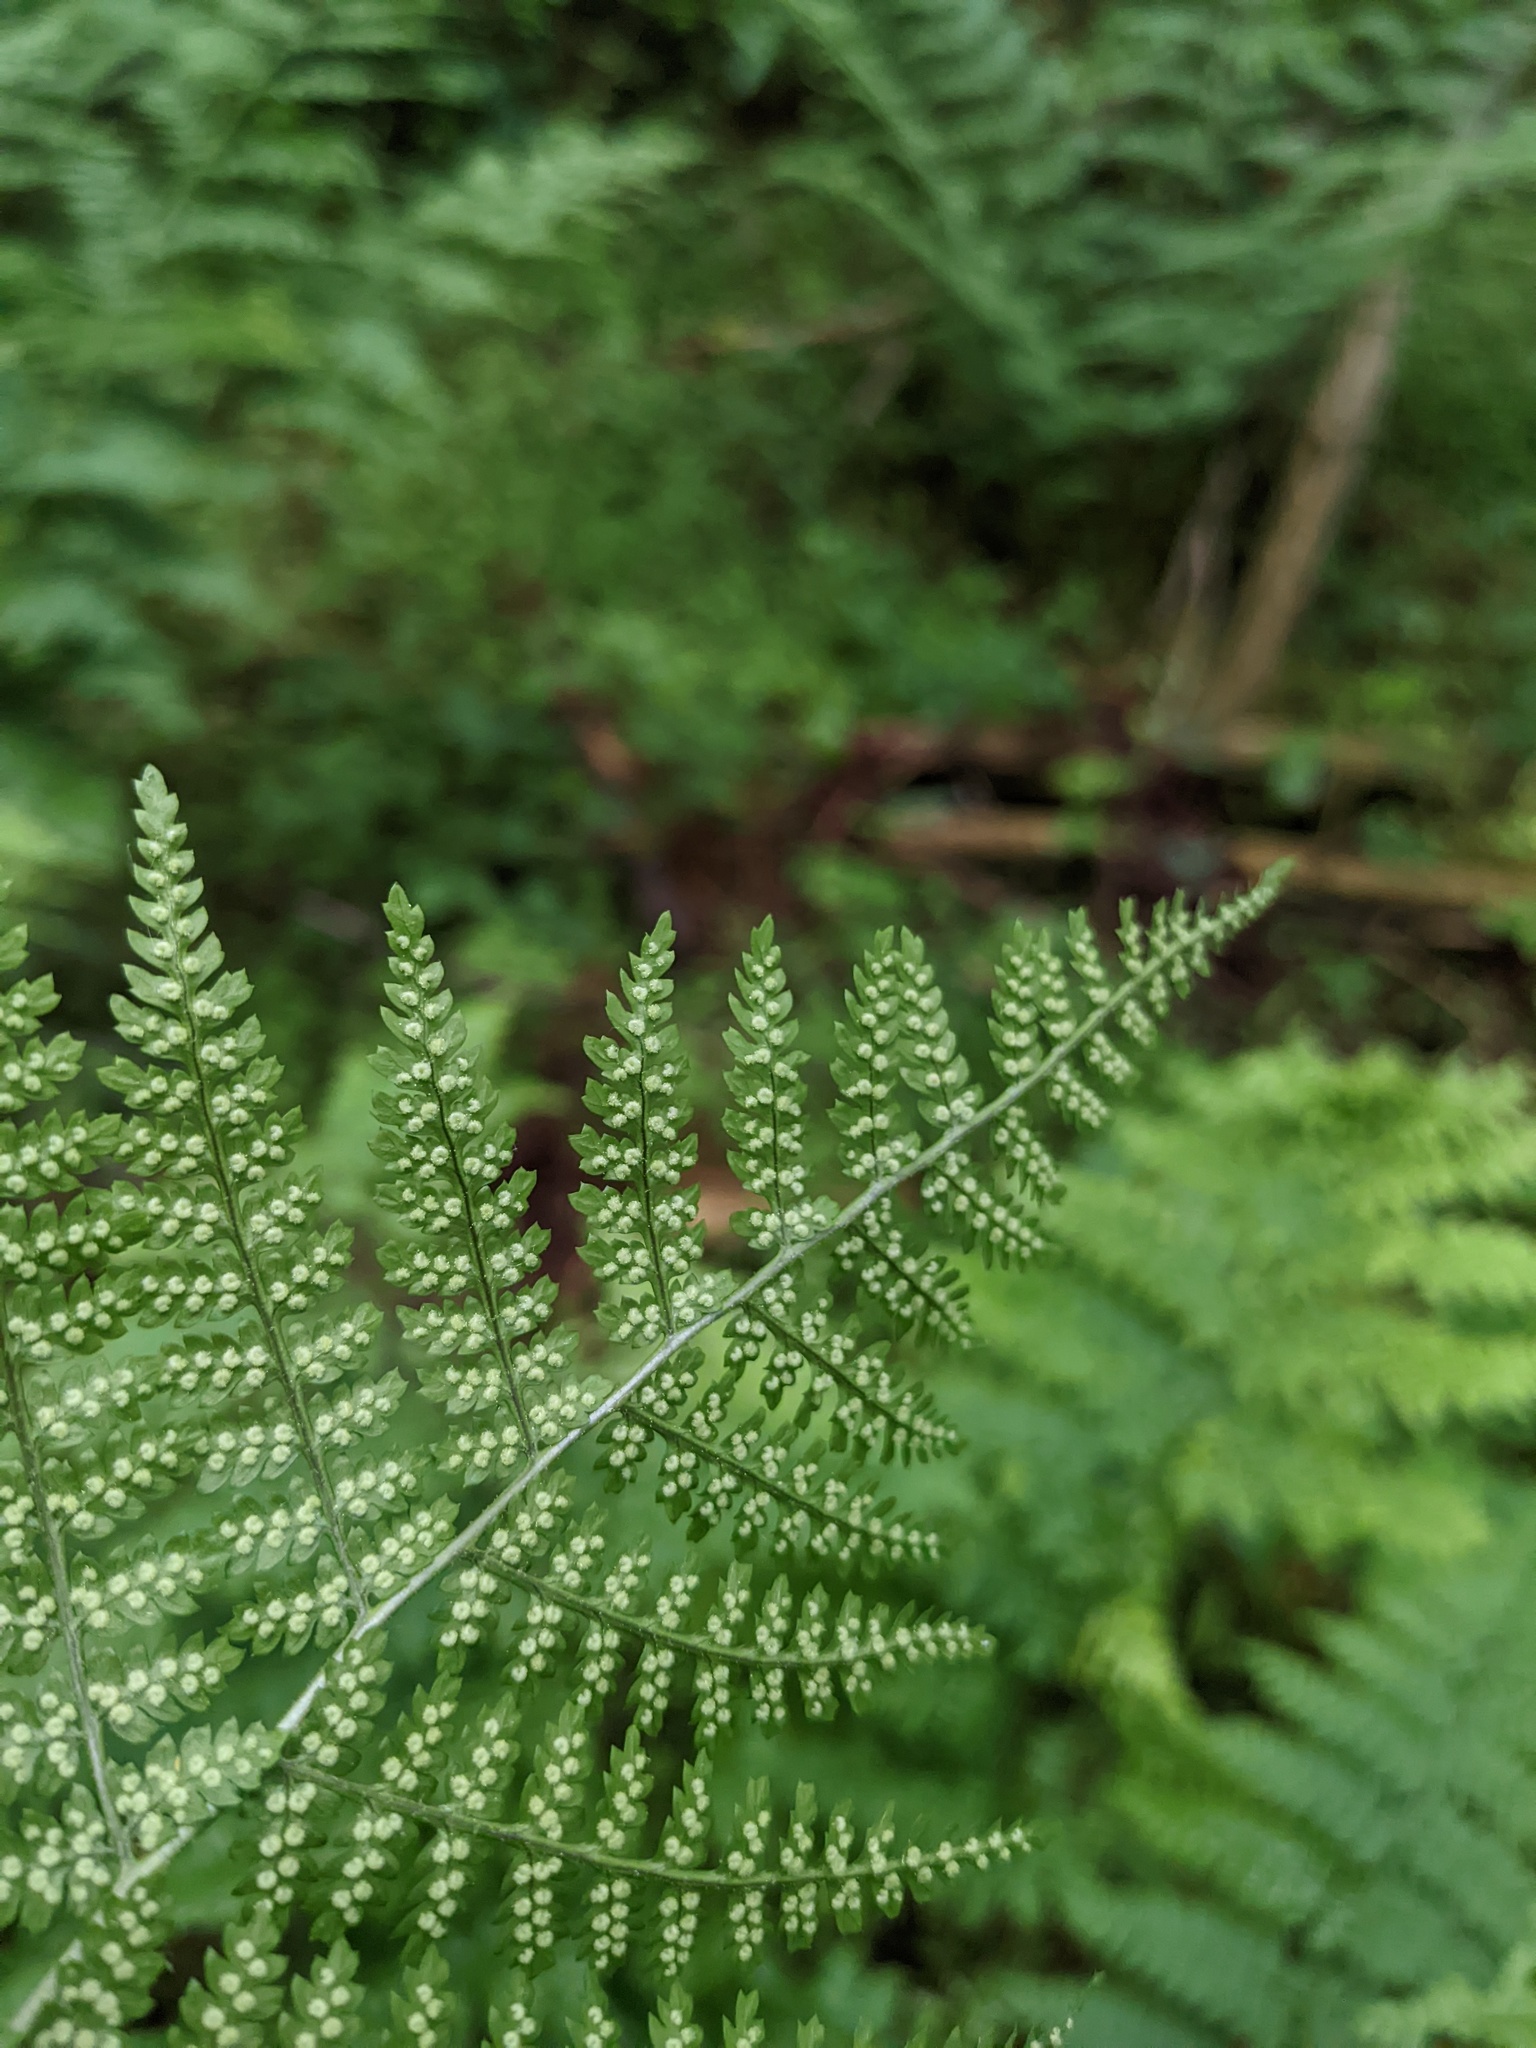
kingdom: Plantae
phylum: Tracheophyta
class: Polypodiopsida
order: Polypodiales
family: Dryopteridaceae
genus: Dryopteris
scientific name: Dryopteris intermedia
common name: Evergreen wood fern
